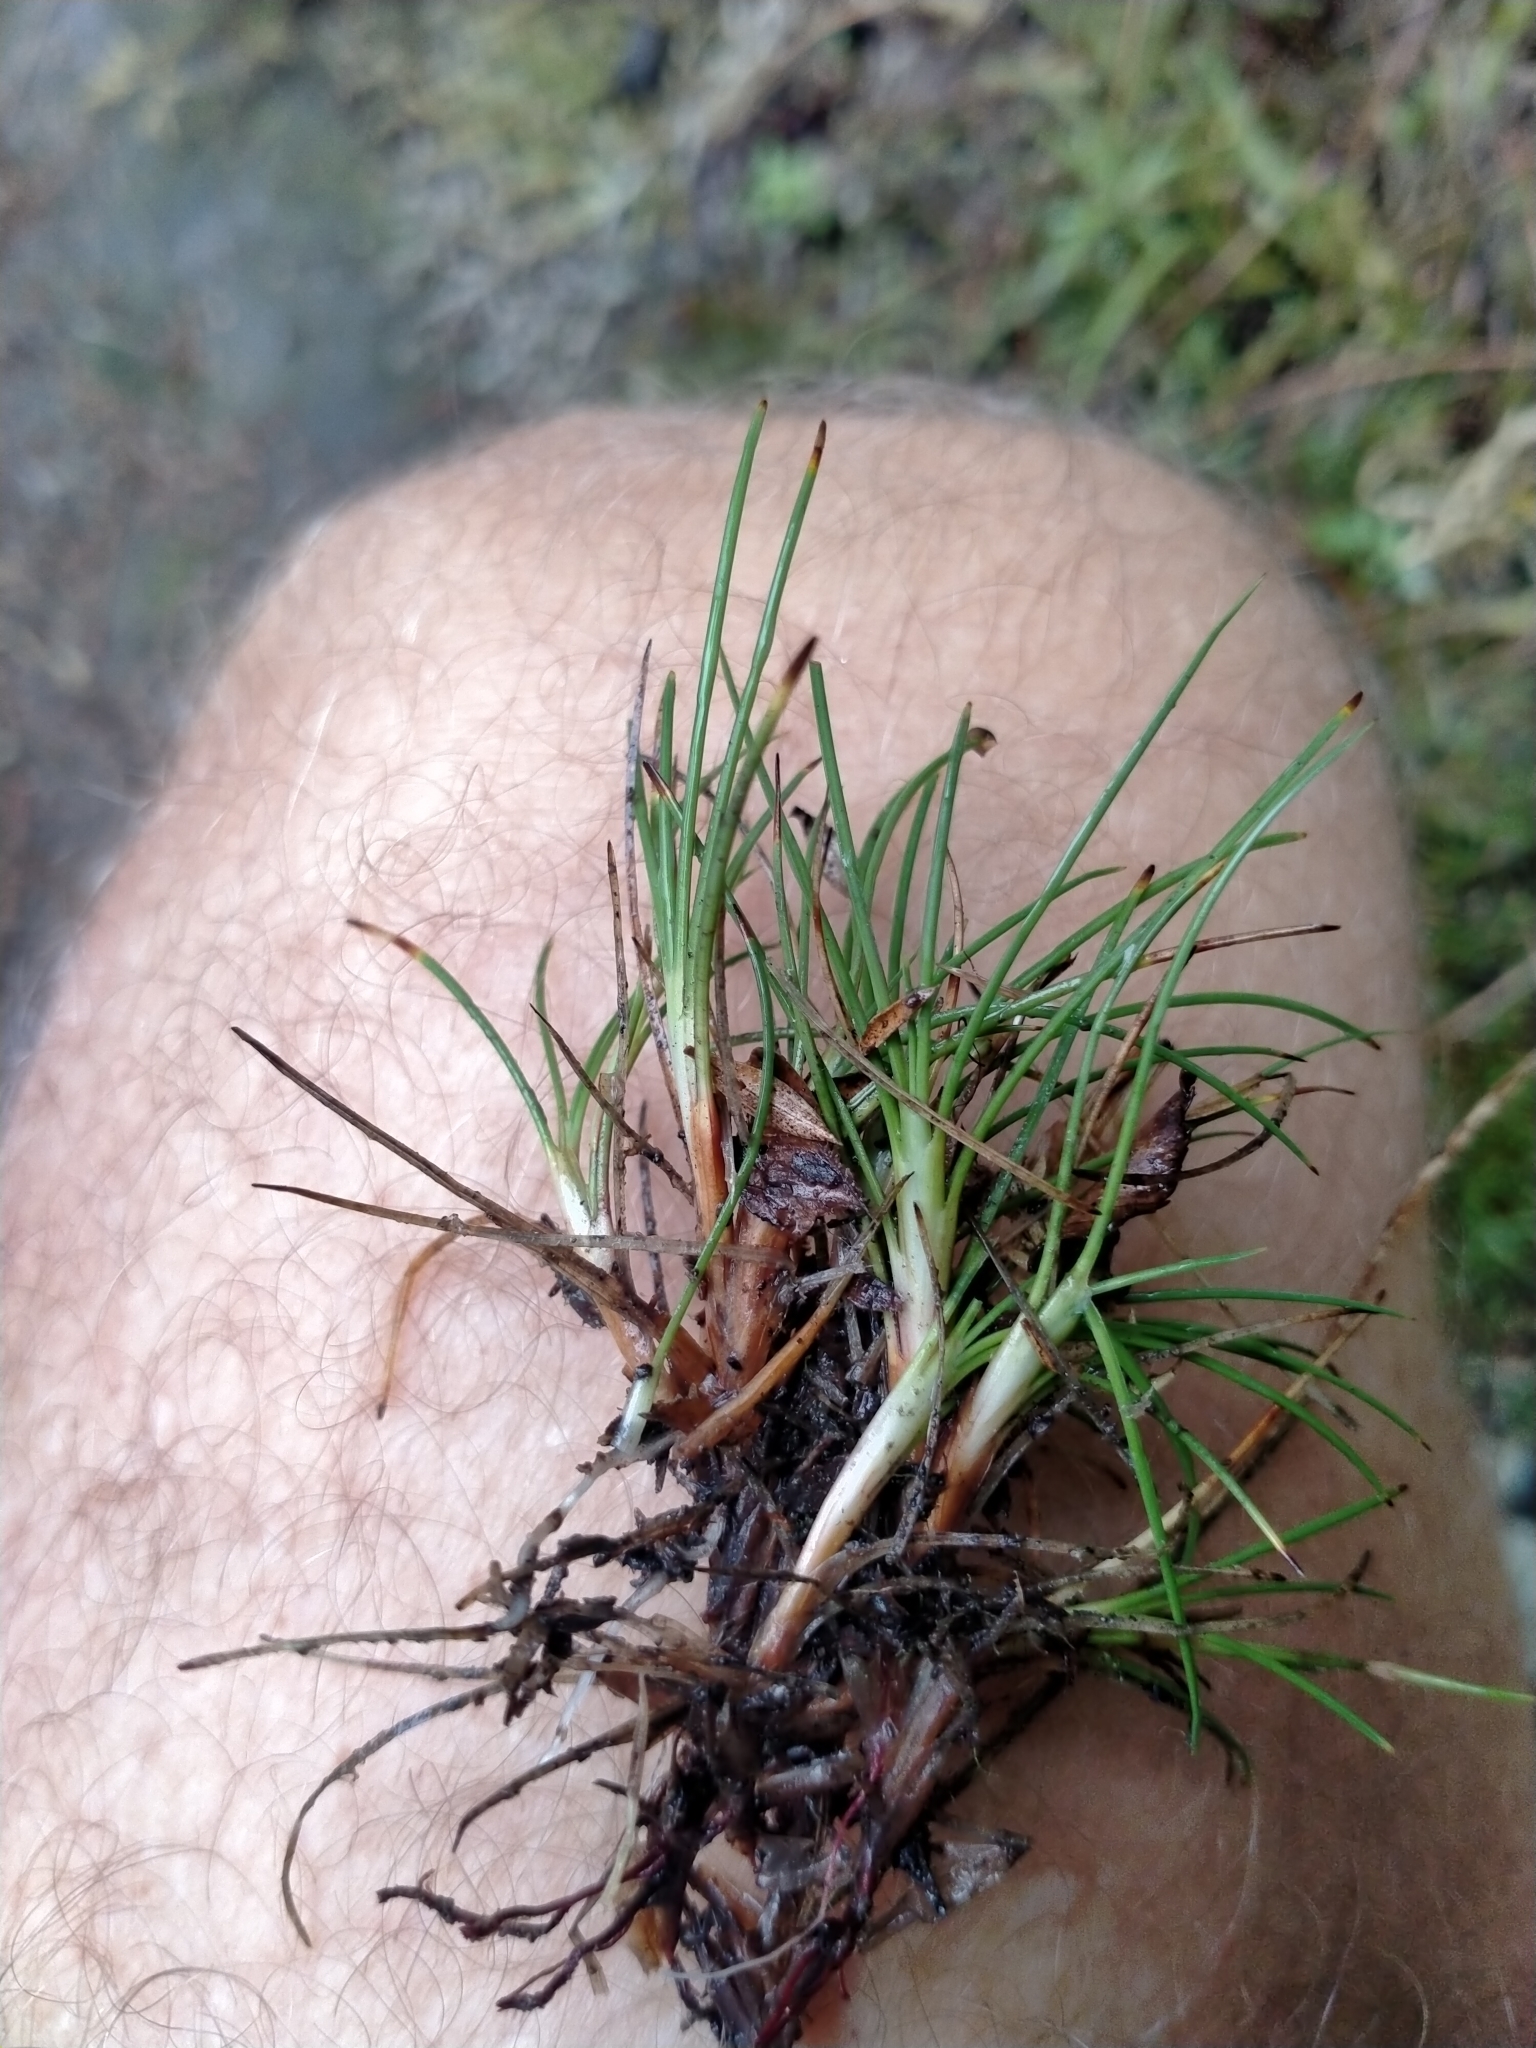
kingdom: Plantae
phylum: Tracheophyta
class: Liliopsida
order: Poales
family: Cyperaceae
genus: Oreobolus
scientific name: Oreobolus strictus
